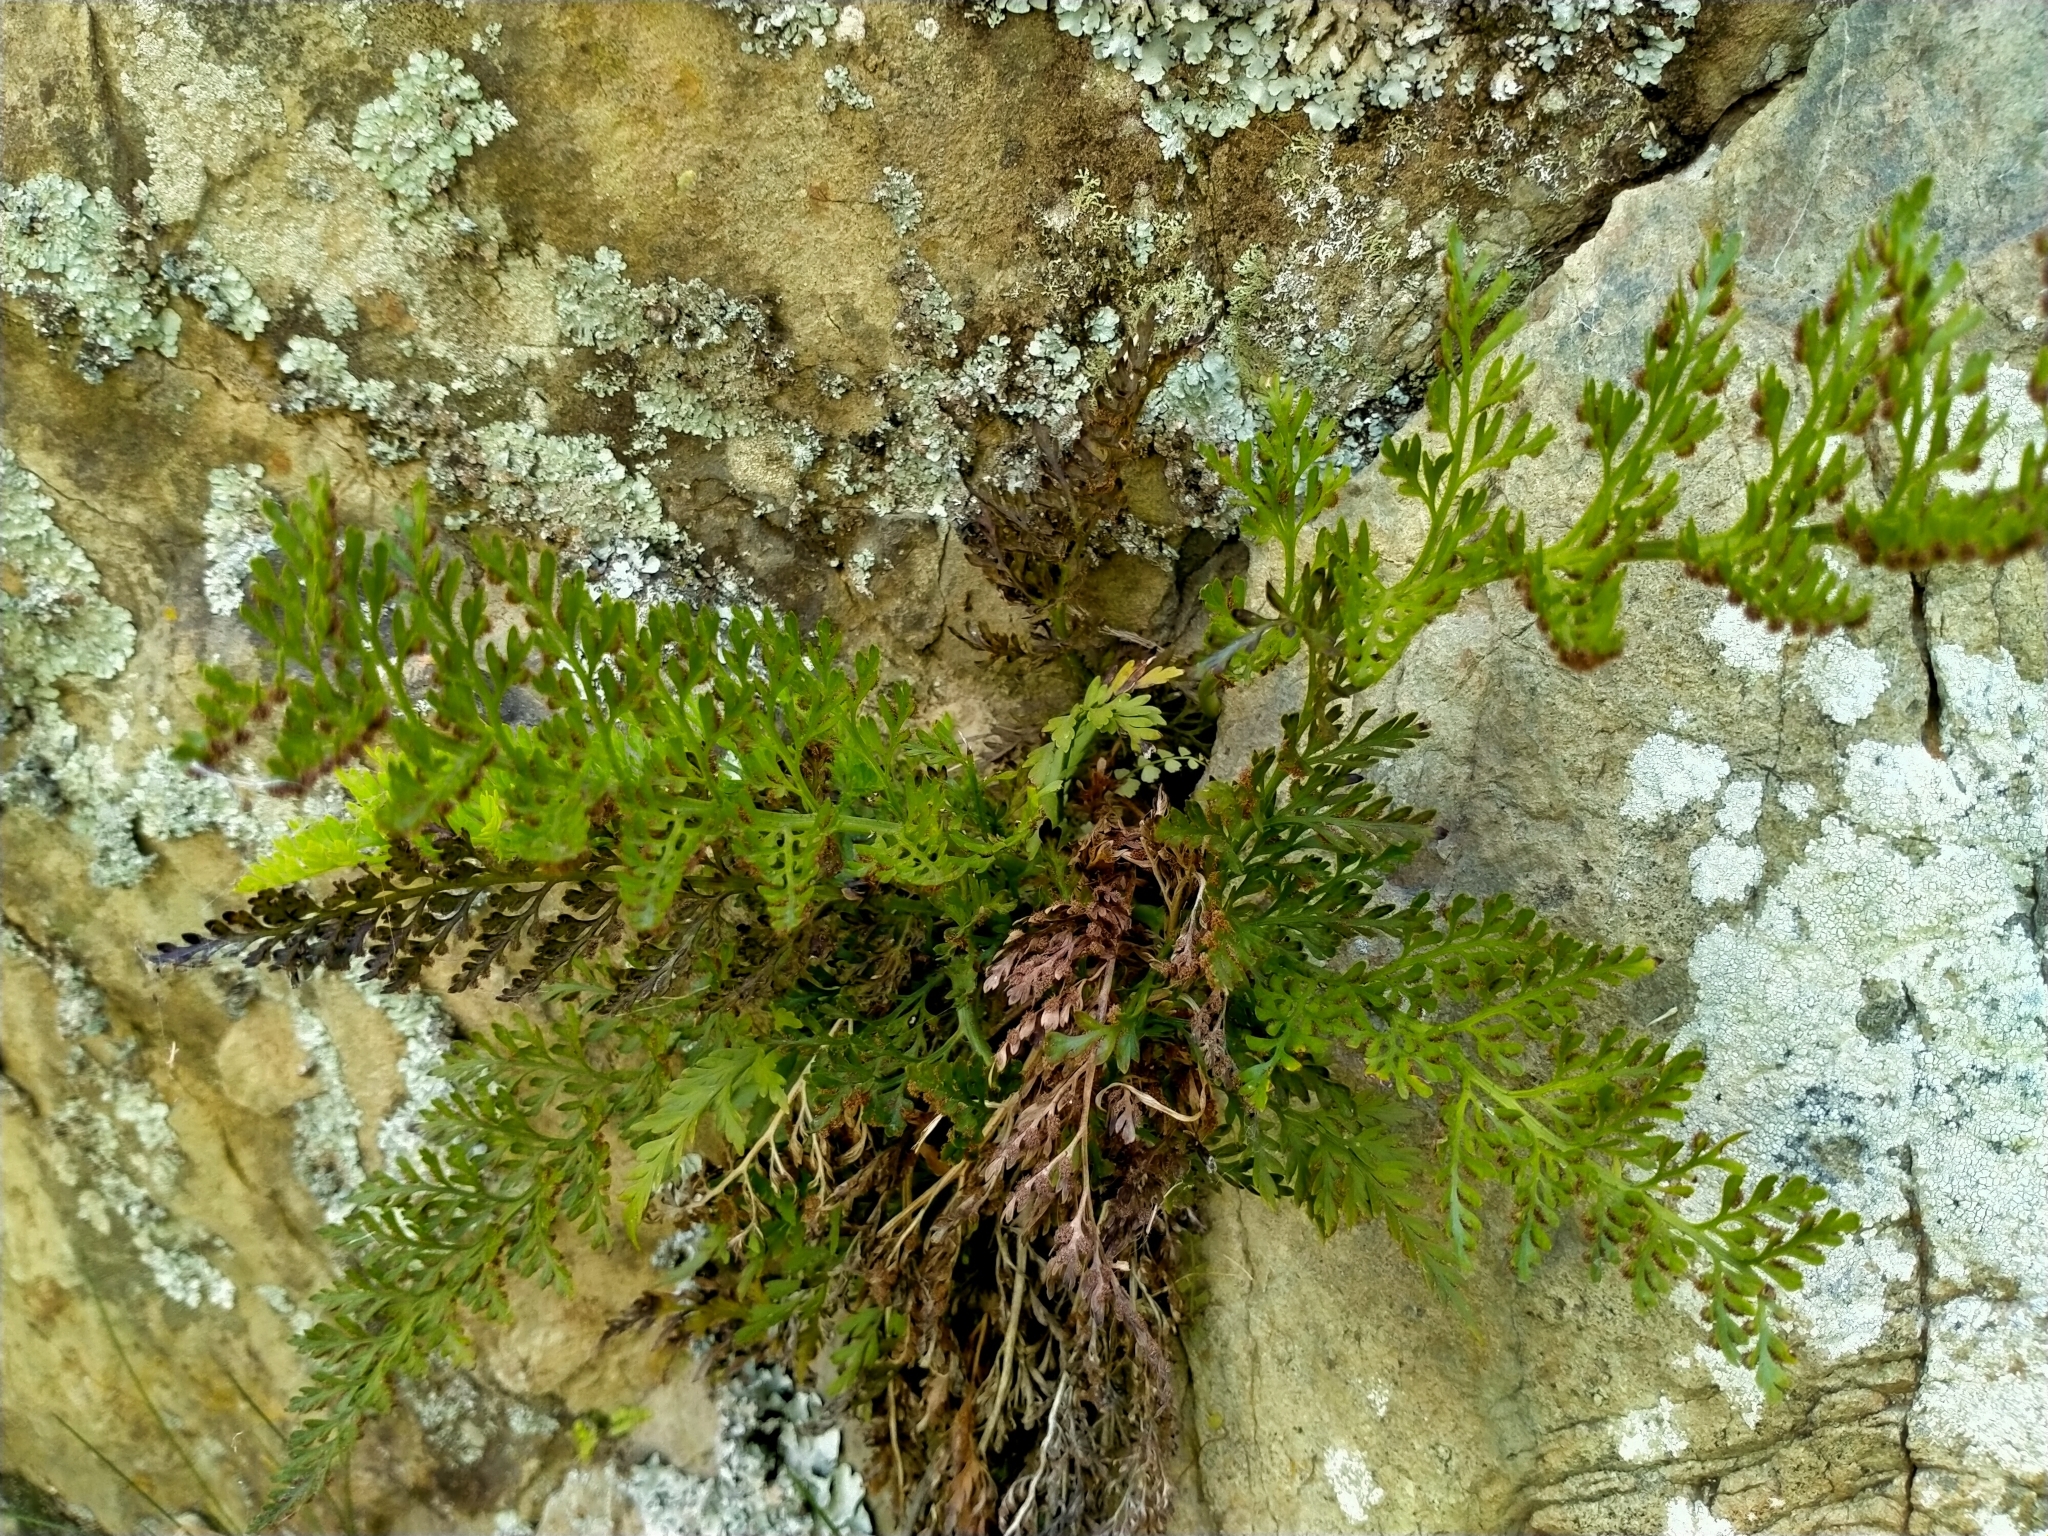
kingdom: Plantae
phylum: Tracheophyta
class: Polypodiopsida
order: Polypodiales
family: Aspleniaceae
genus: Asplenium
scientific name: Asplenium richardii
